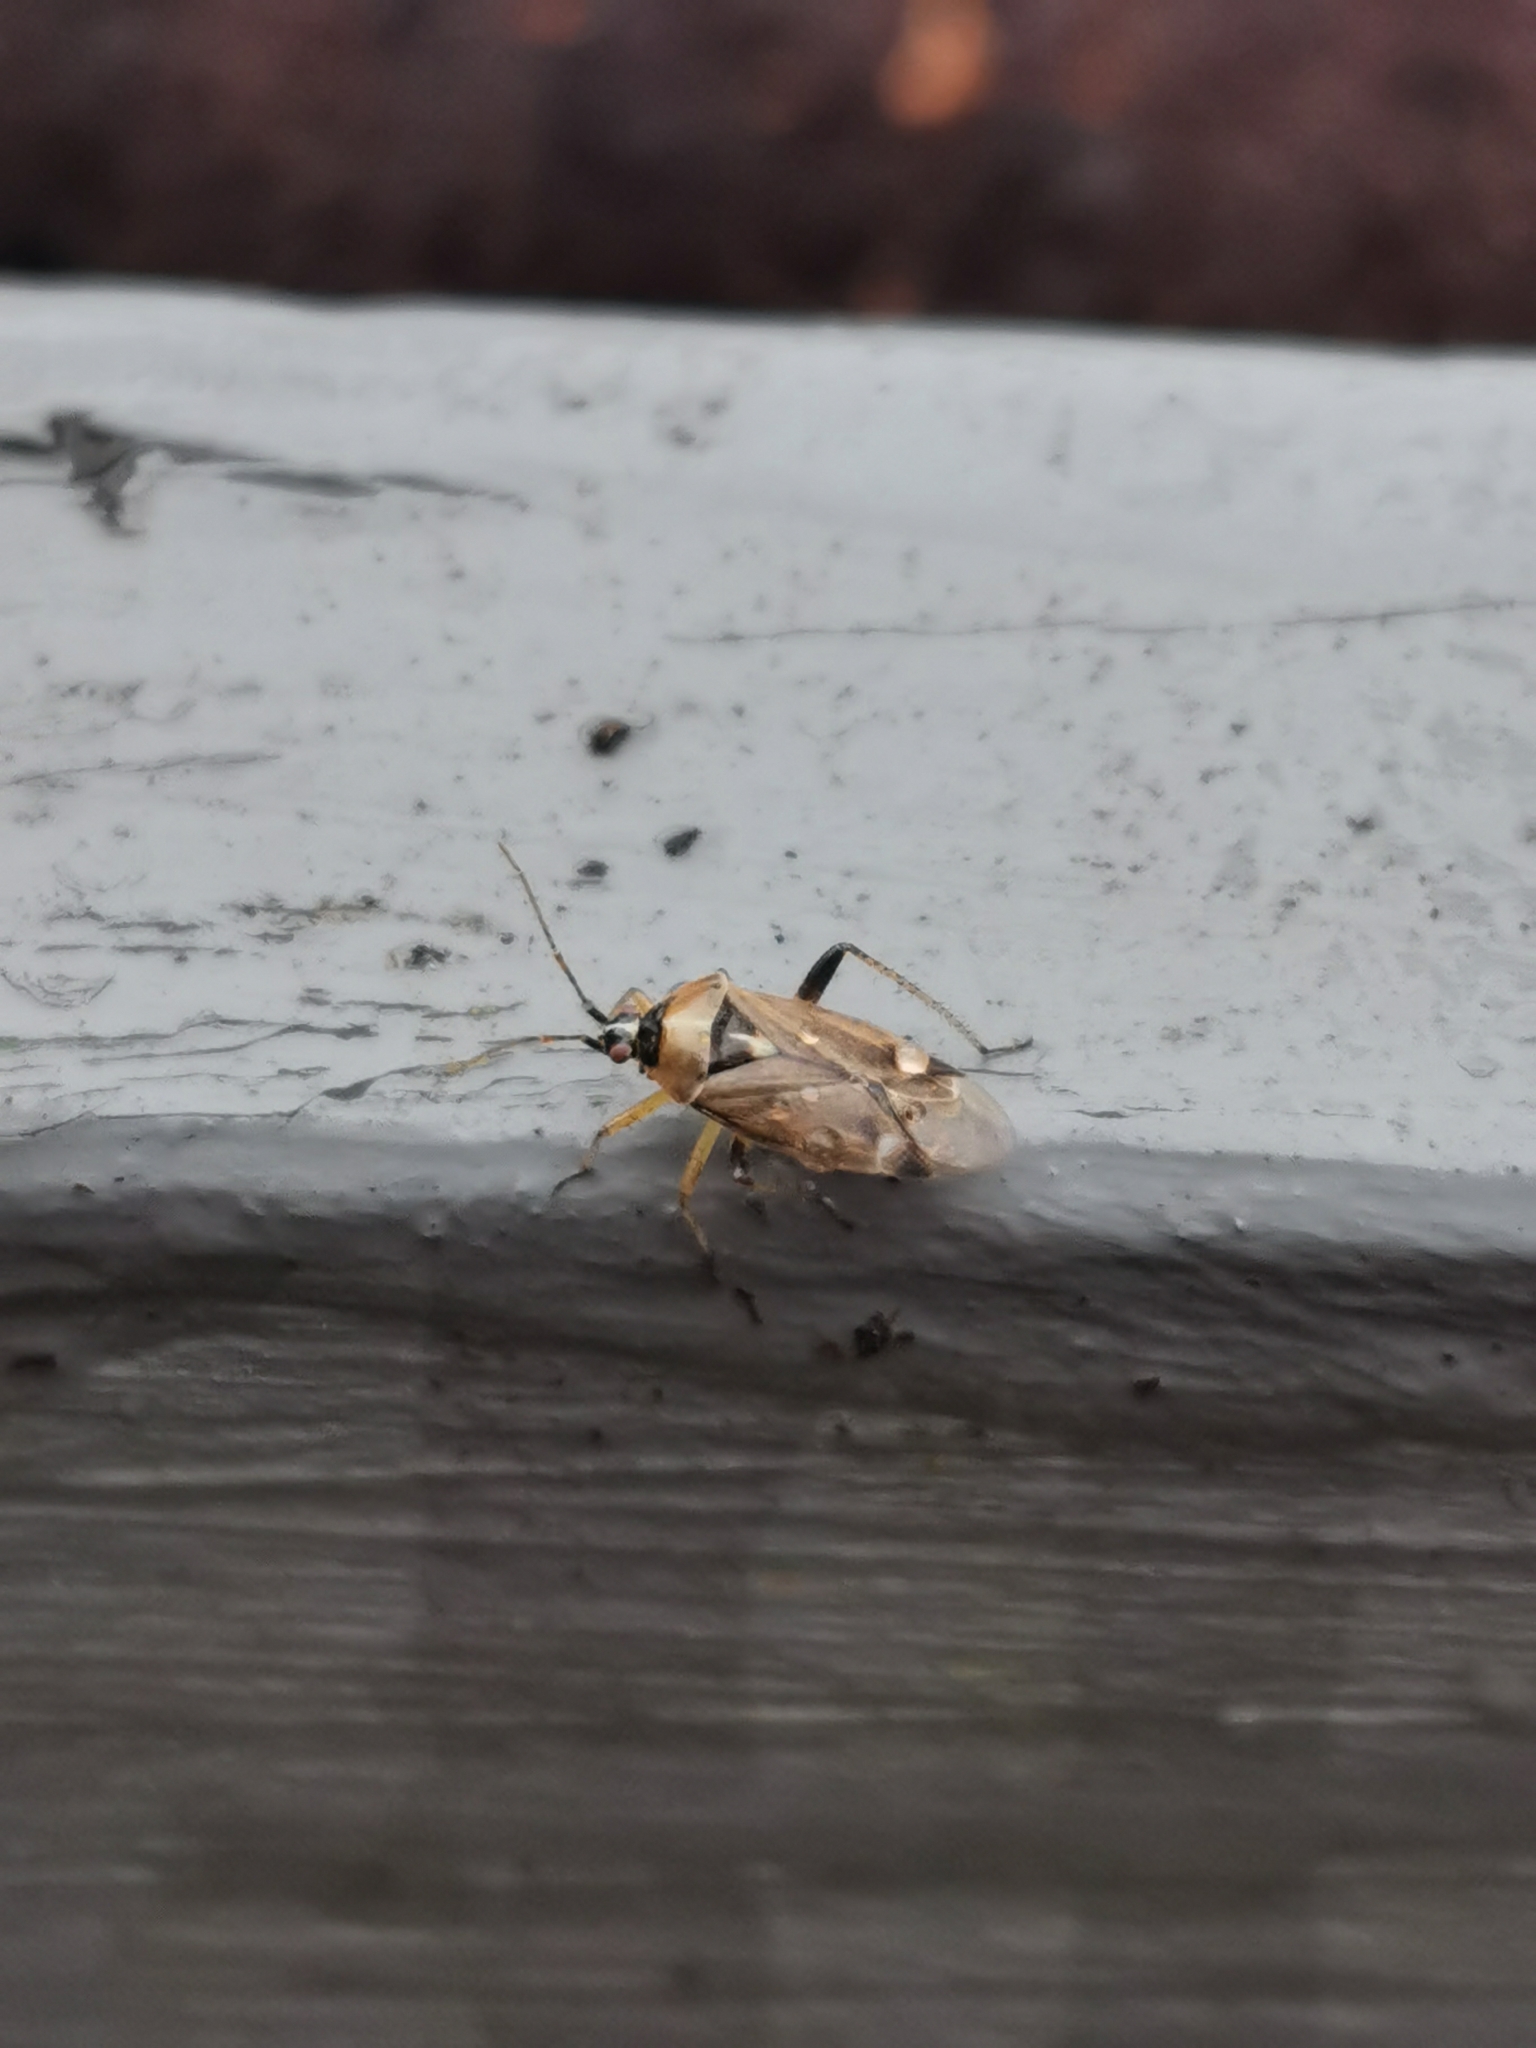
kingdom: Animalia
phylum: Arthropoda
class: Insecta
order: Hemiptera
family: Miridae
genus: Harpocera
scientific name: Harpocera thoracica
